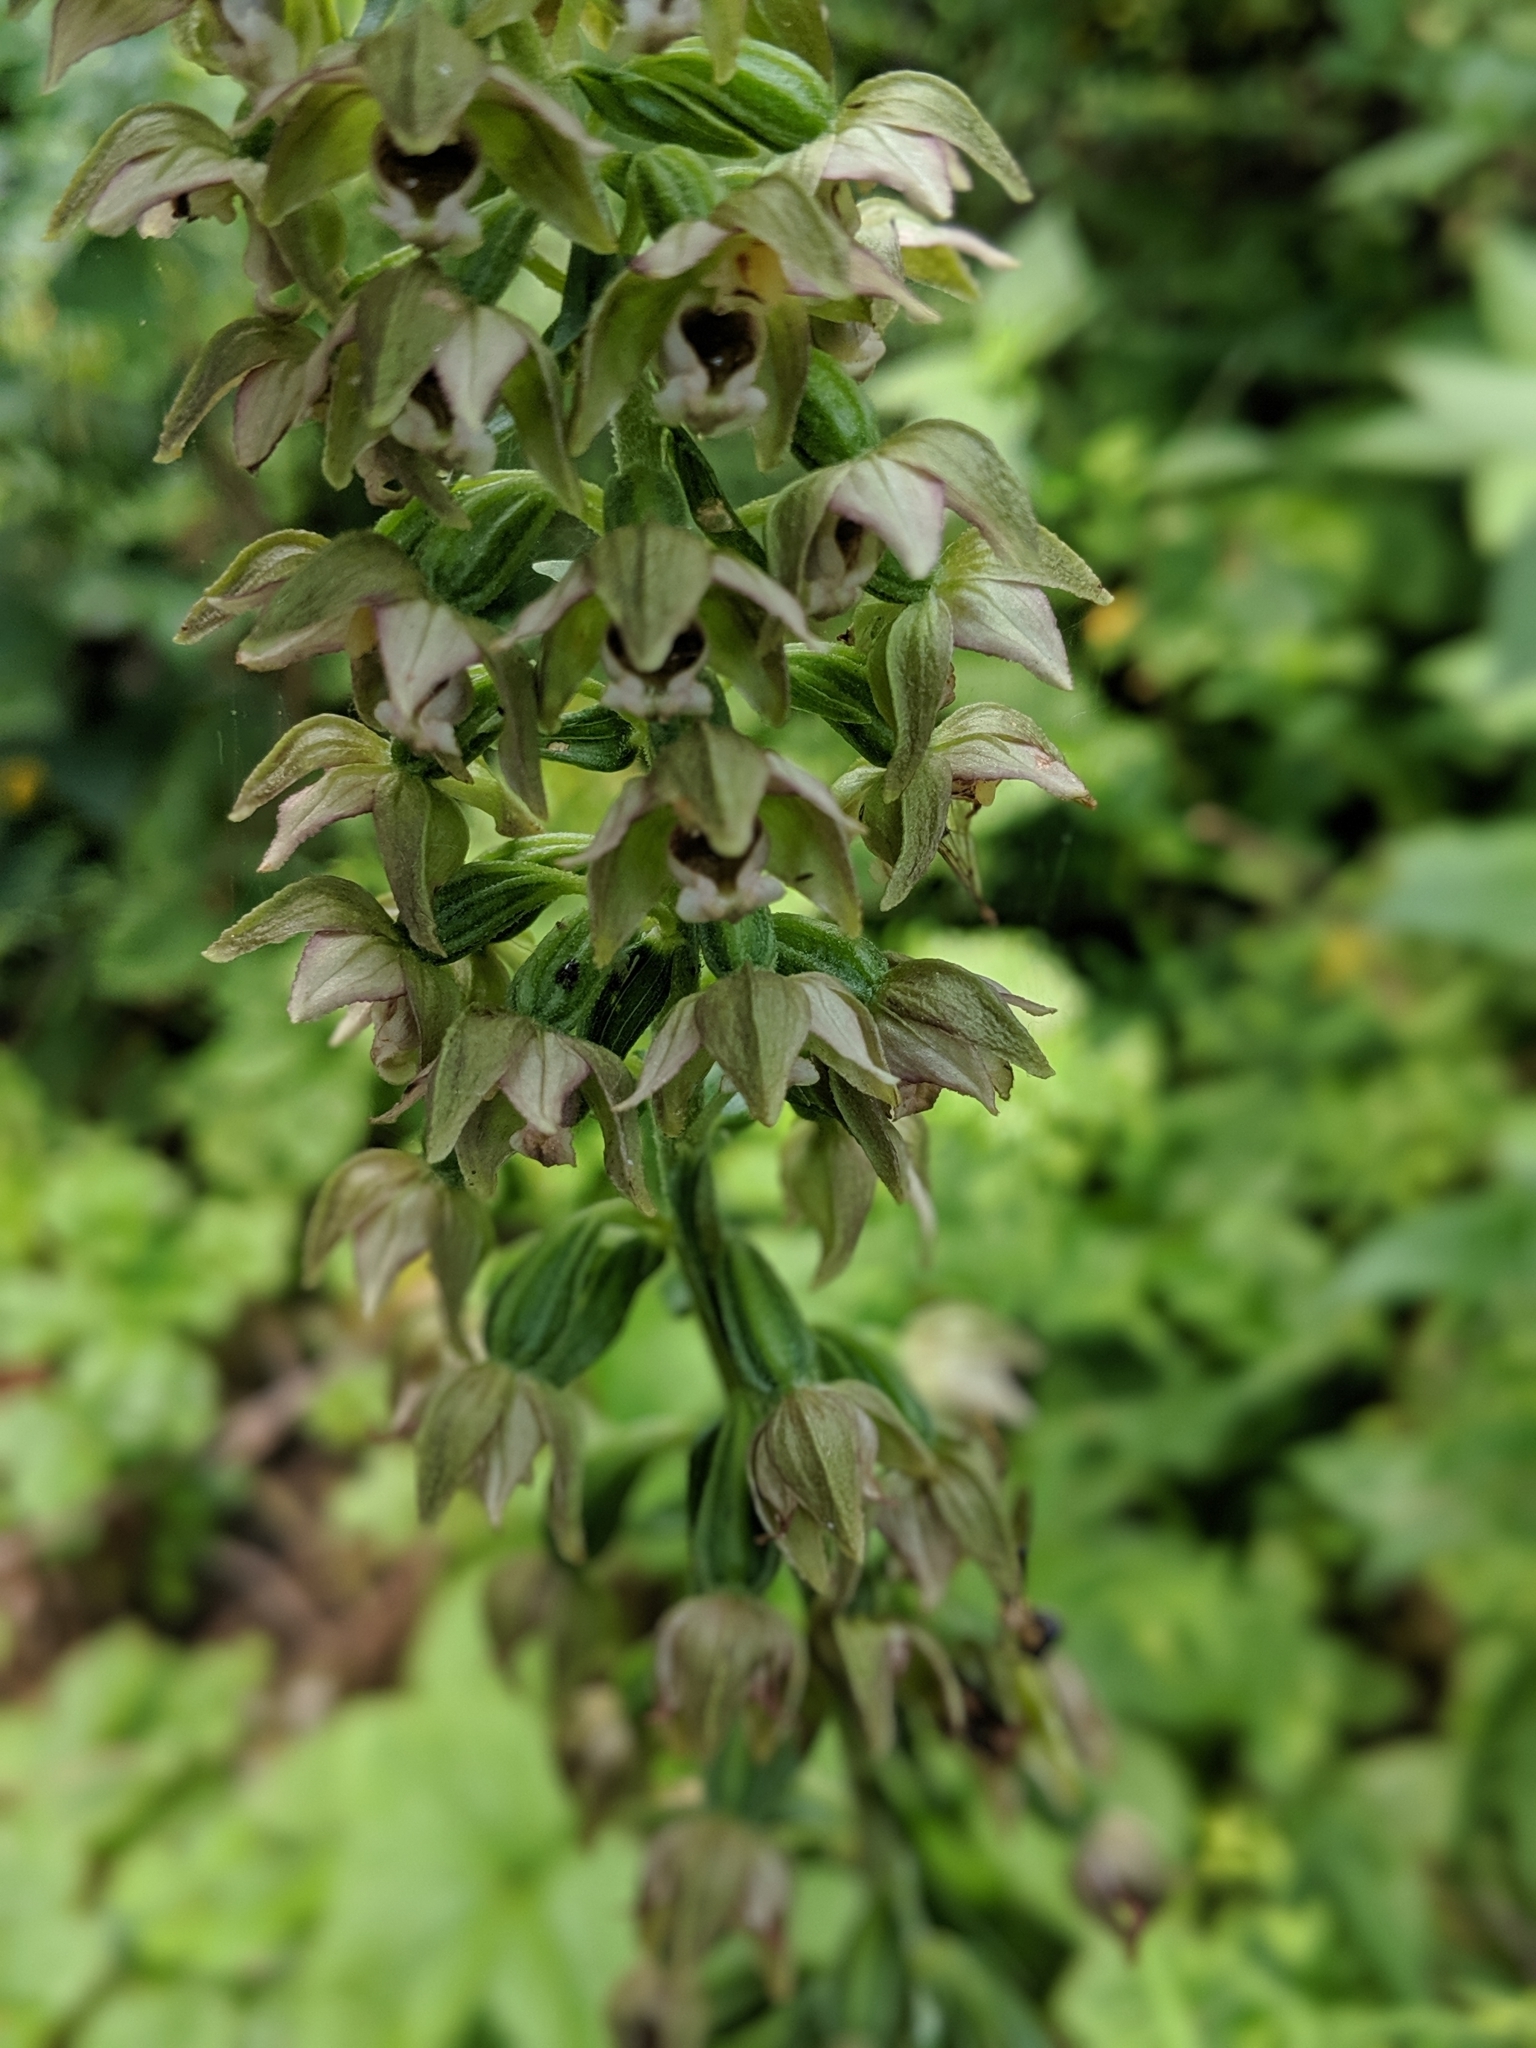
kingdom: Plantae
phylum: Tracheophyta
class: Liliopsida
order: Asparagales
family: Orchidaceae
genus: Epipactis
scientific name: Epipactis helleborine
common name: Broad-leaved helleborine
